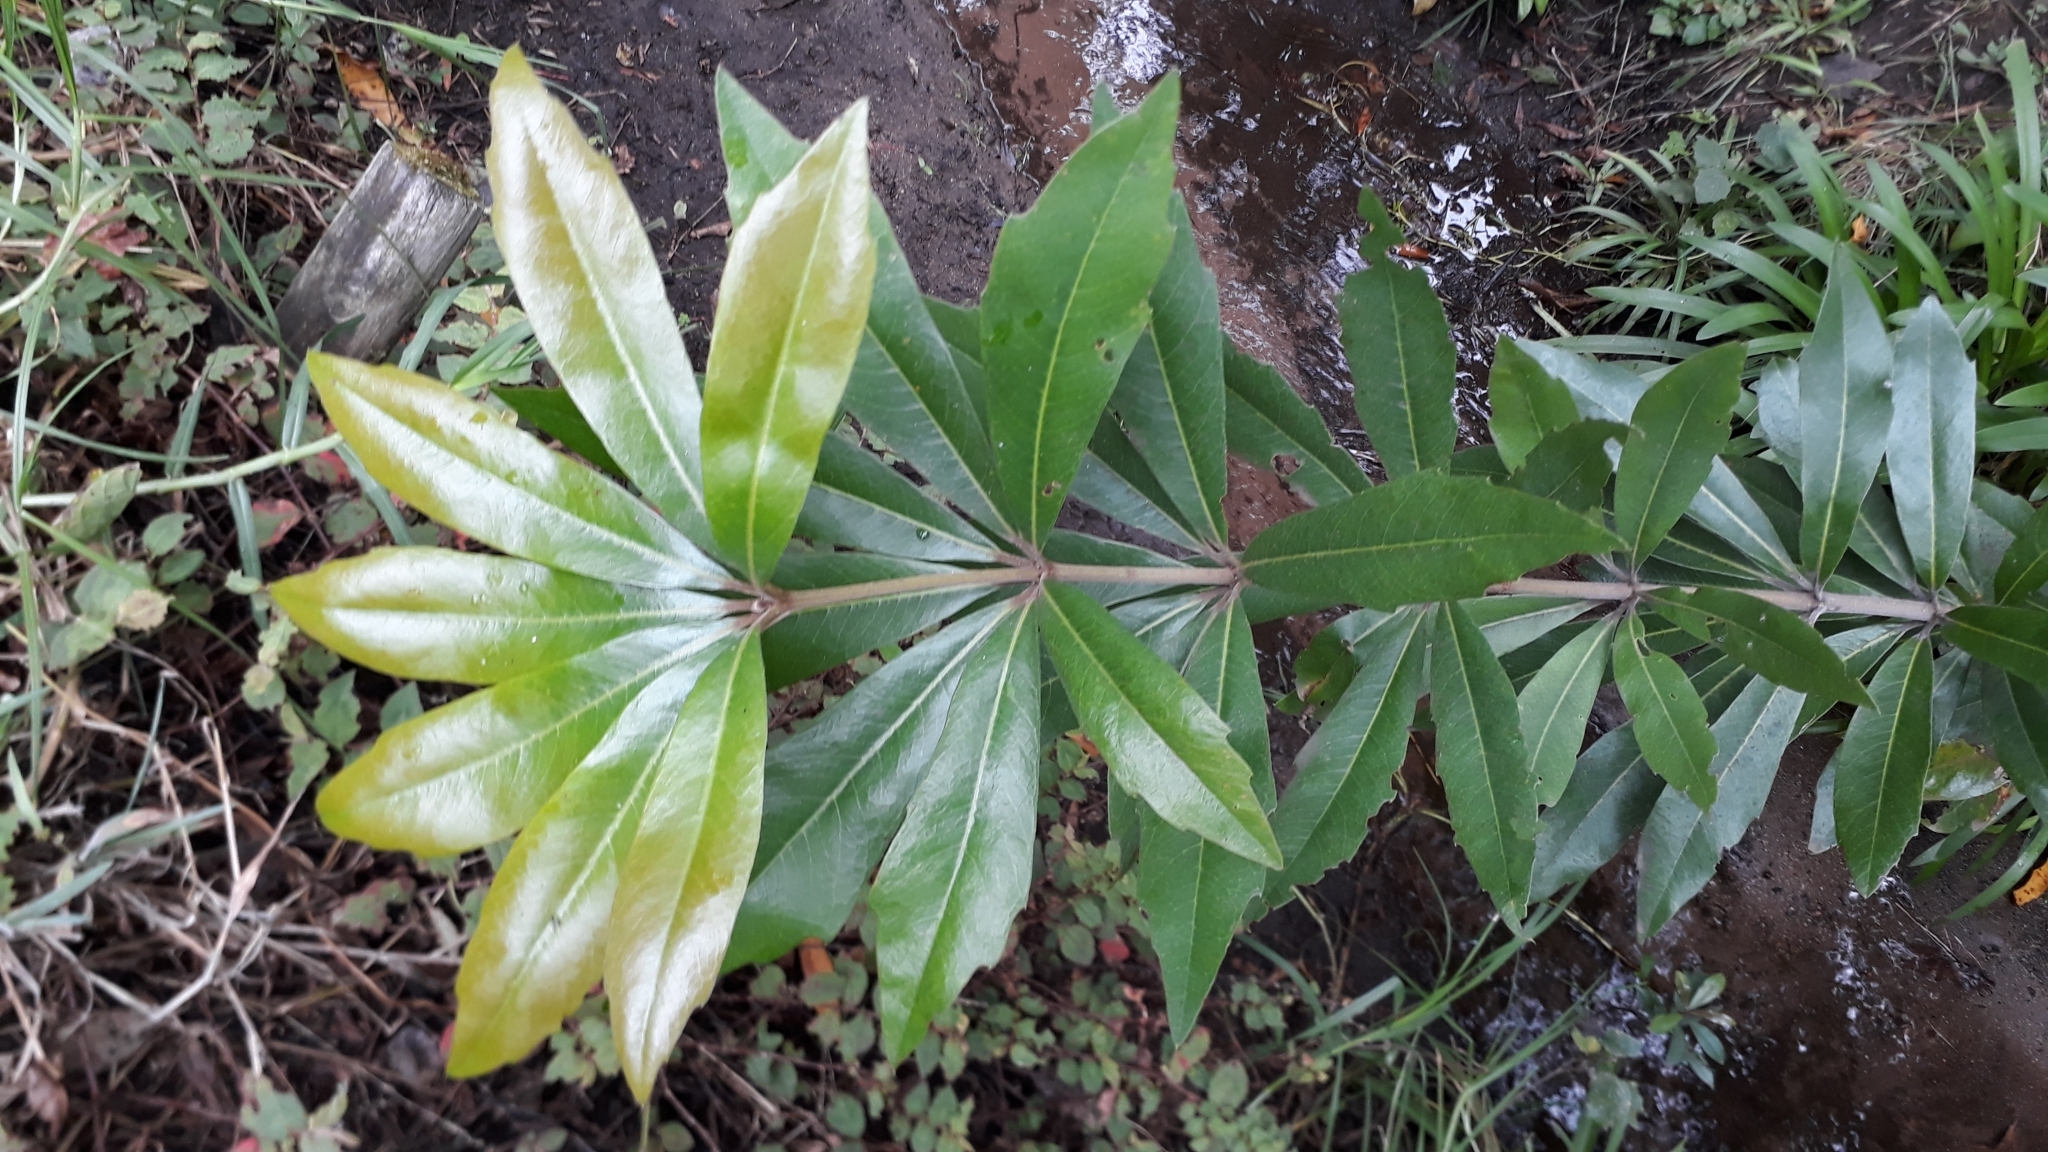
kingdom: Plantae
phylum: Tracheophyta
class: Magnoliopsida
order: Proteales
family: Proteaceae
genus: Brabejum
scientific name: Brabejum stellatifolium
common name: Wild almond
